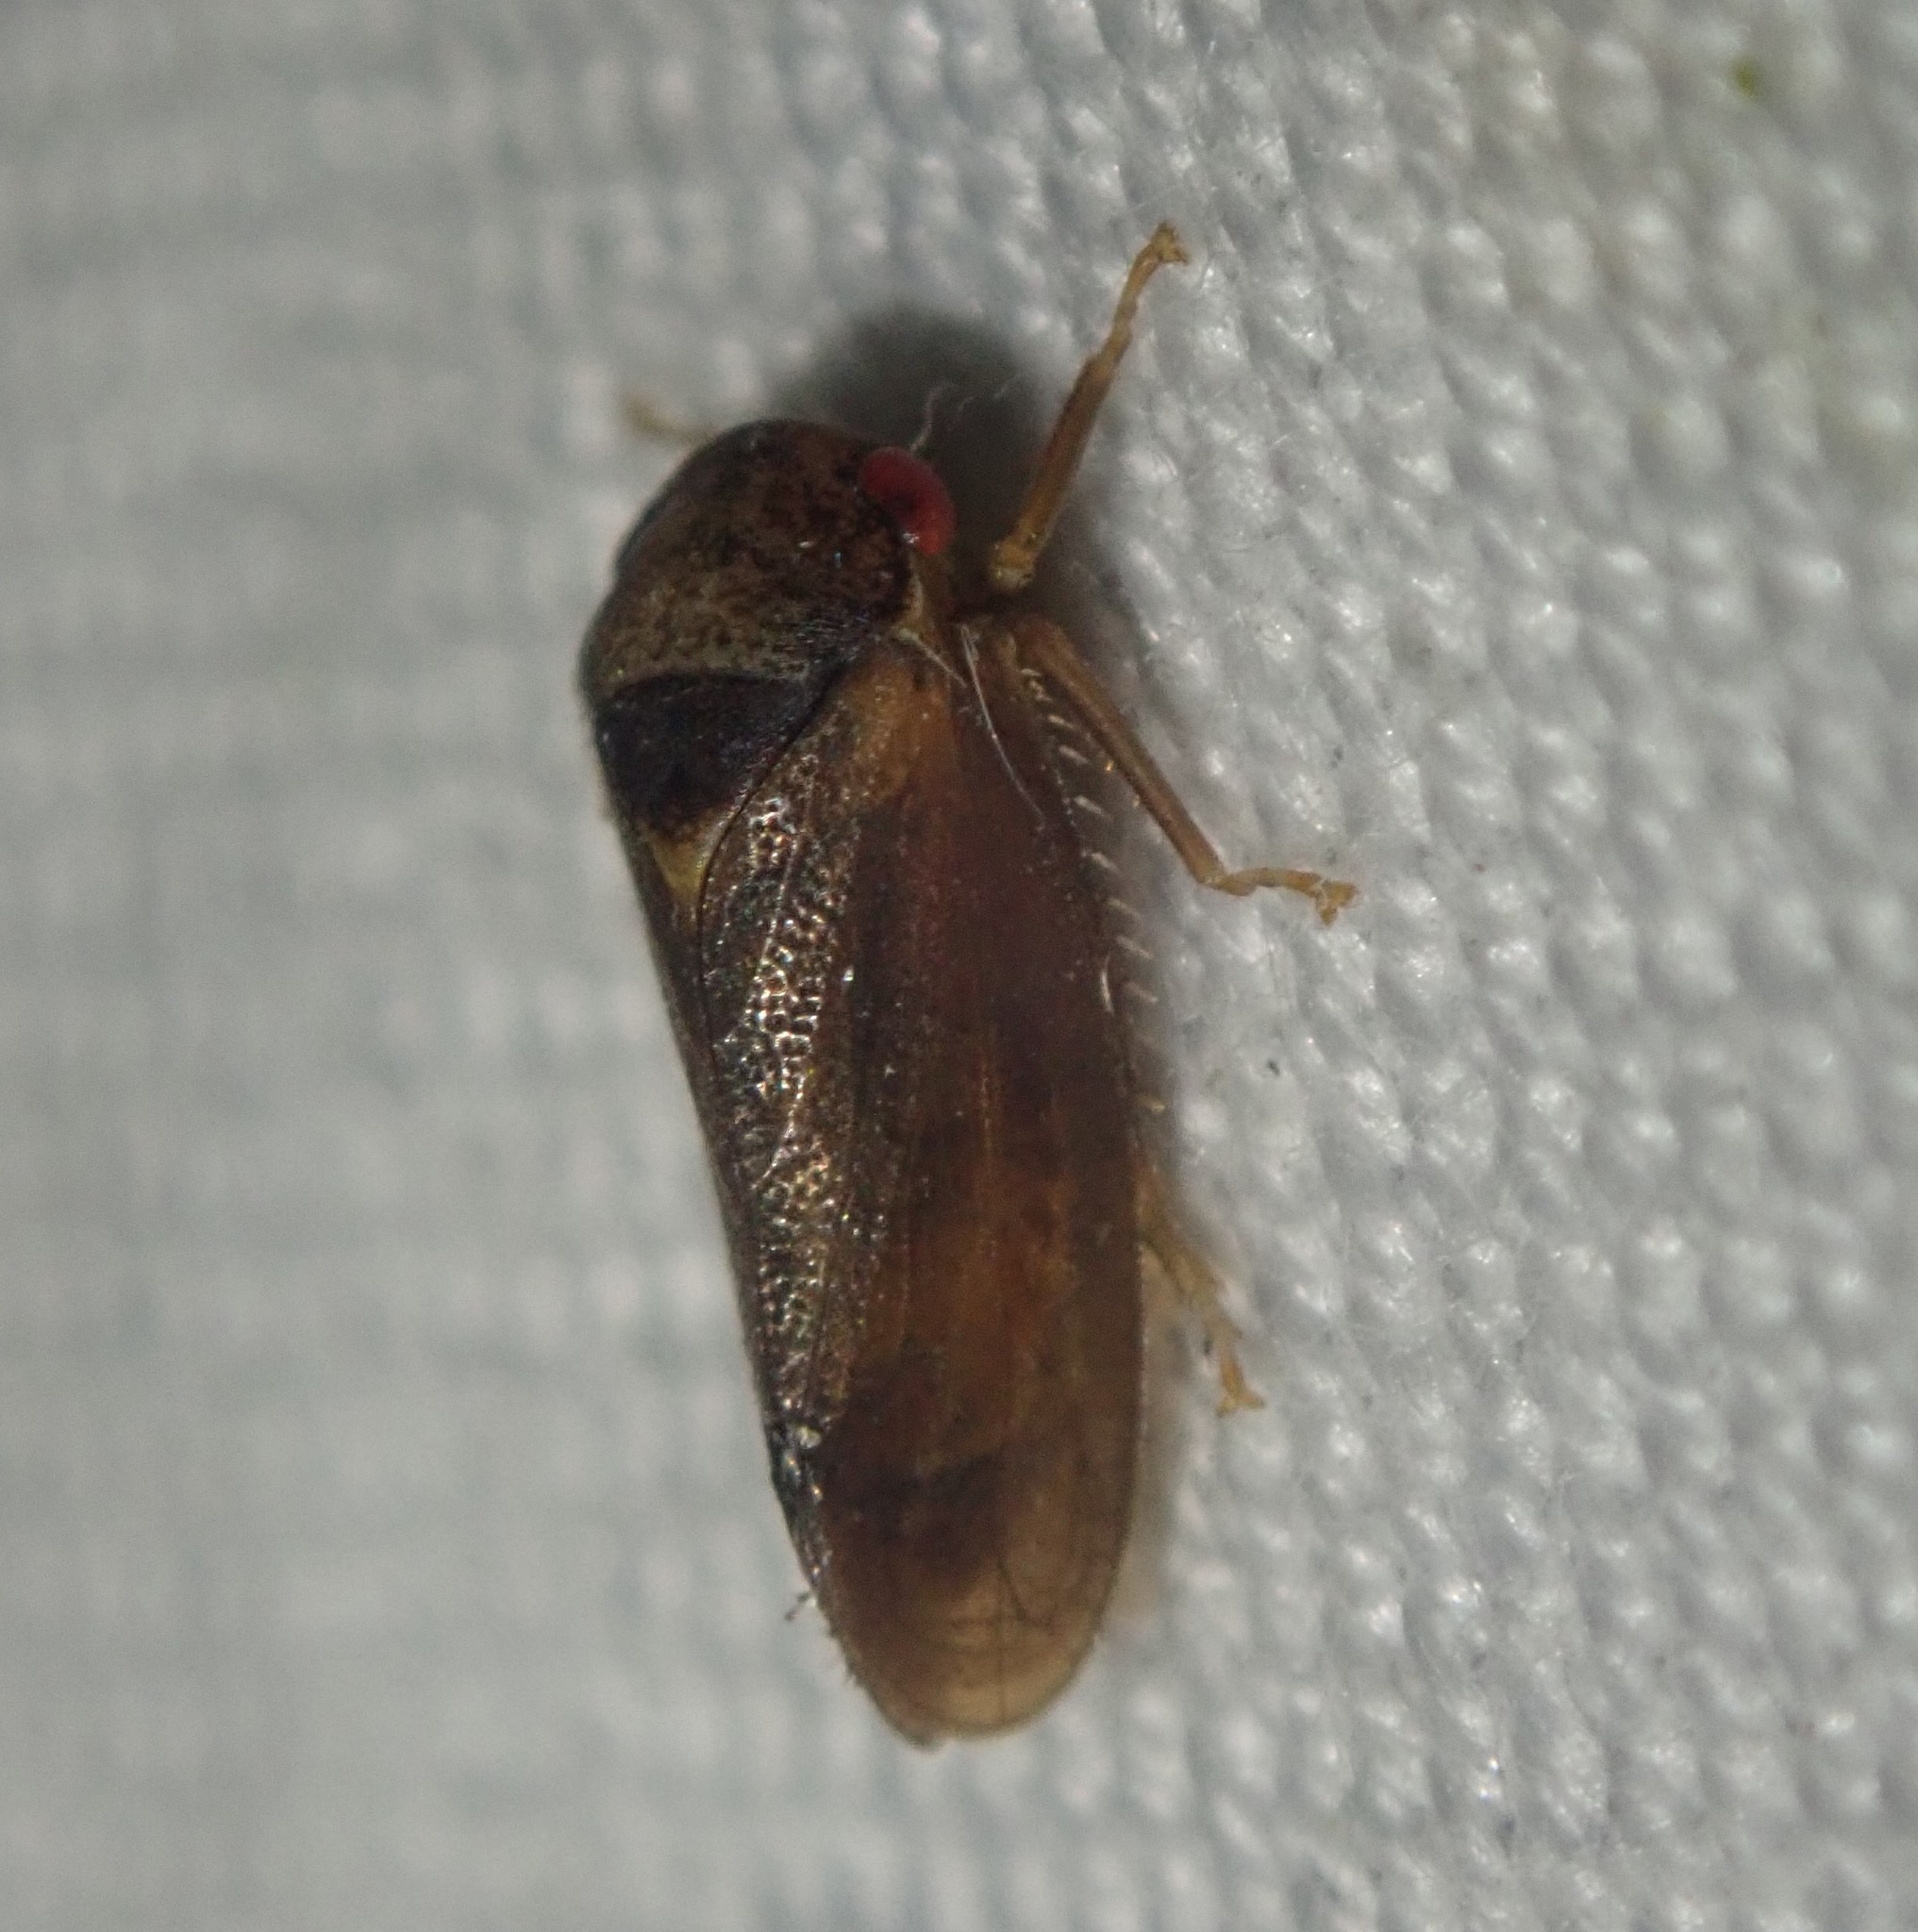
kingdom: Animalia
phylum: Arthropoda
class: Insecta
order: Hemiptera
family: Cicadellidae
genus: Iassus
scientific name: Iassus lanio
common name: Leafhopper
